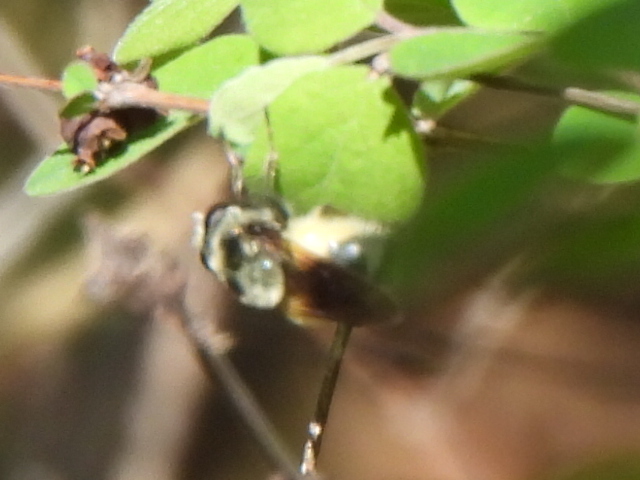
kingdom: Animalia
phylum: Arthropoda
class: Insecta
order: Diptera
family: Syrphidae
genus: Blera
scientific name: Blera umbratilis
